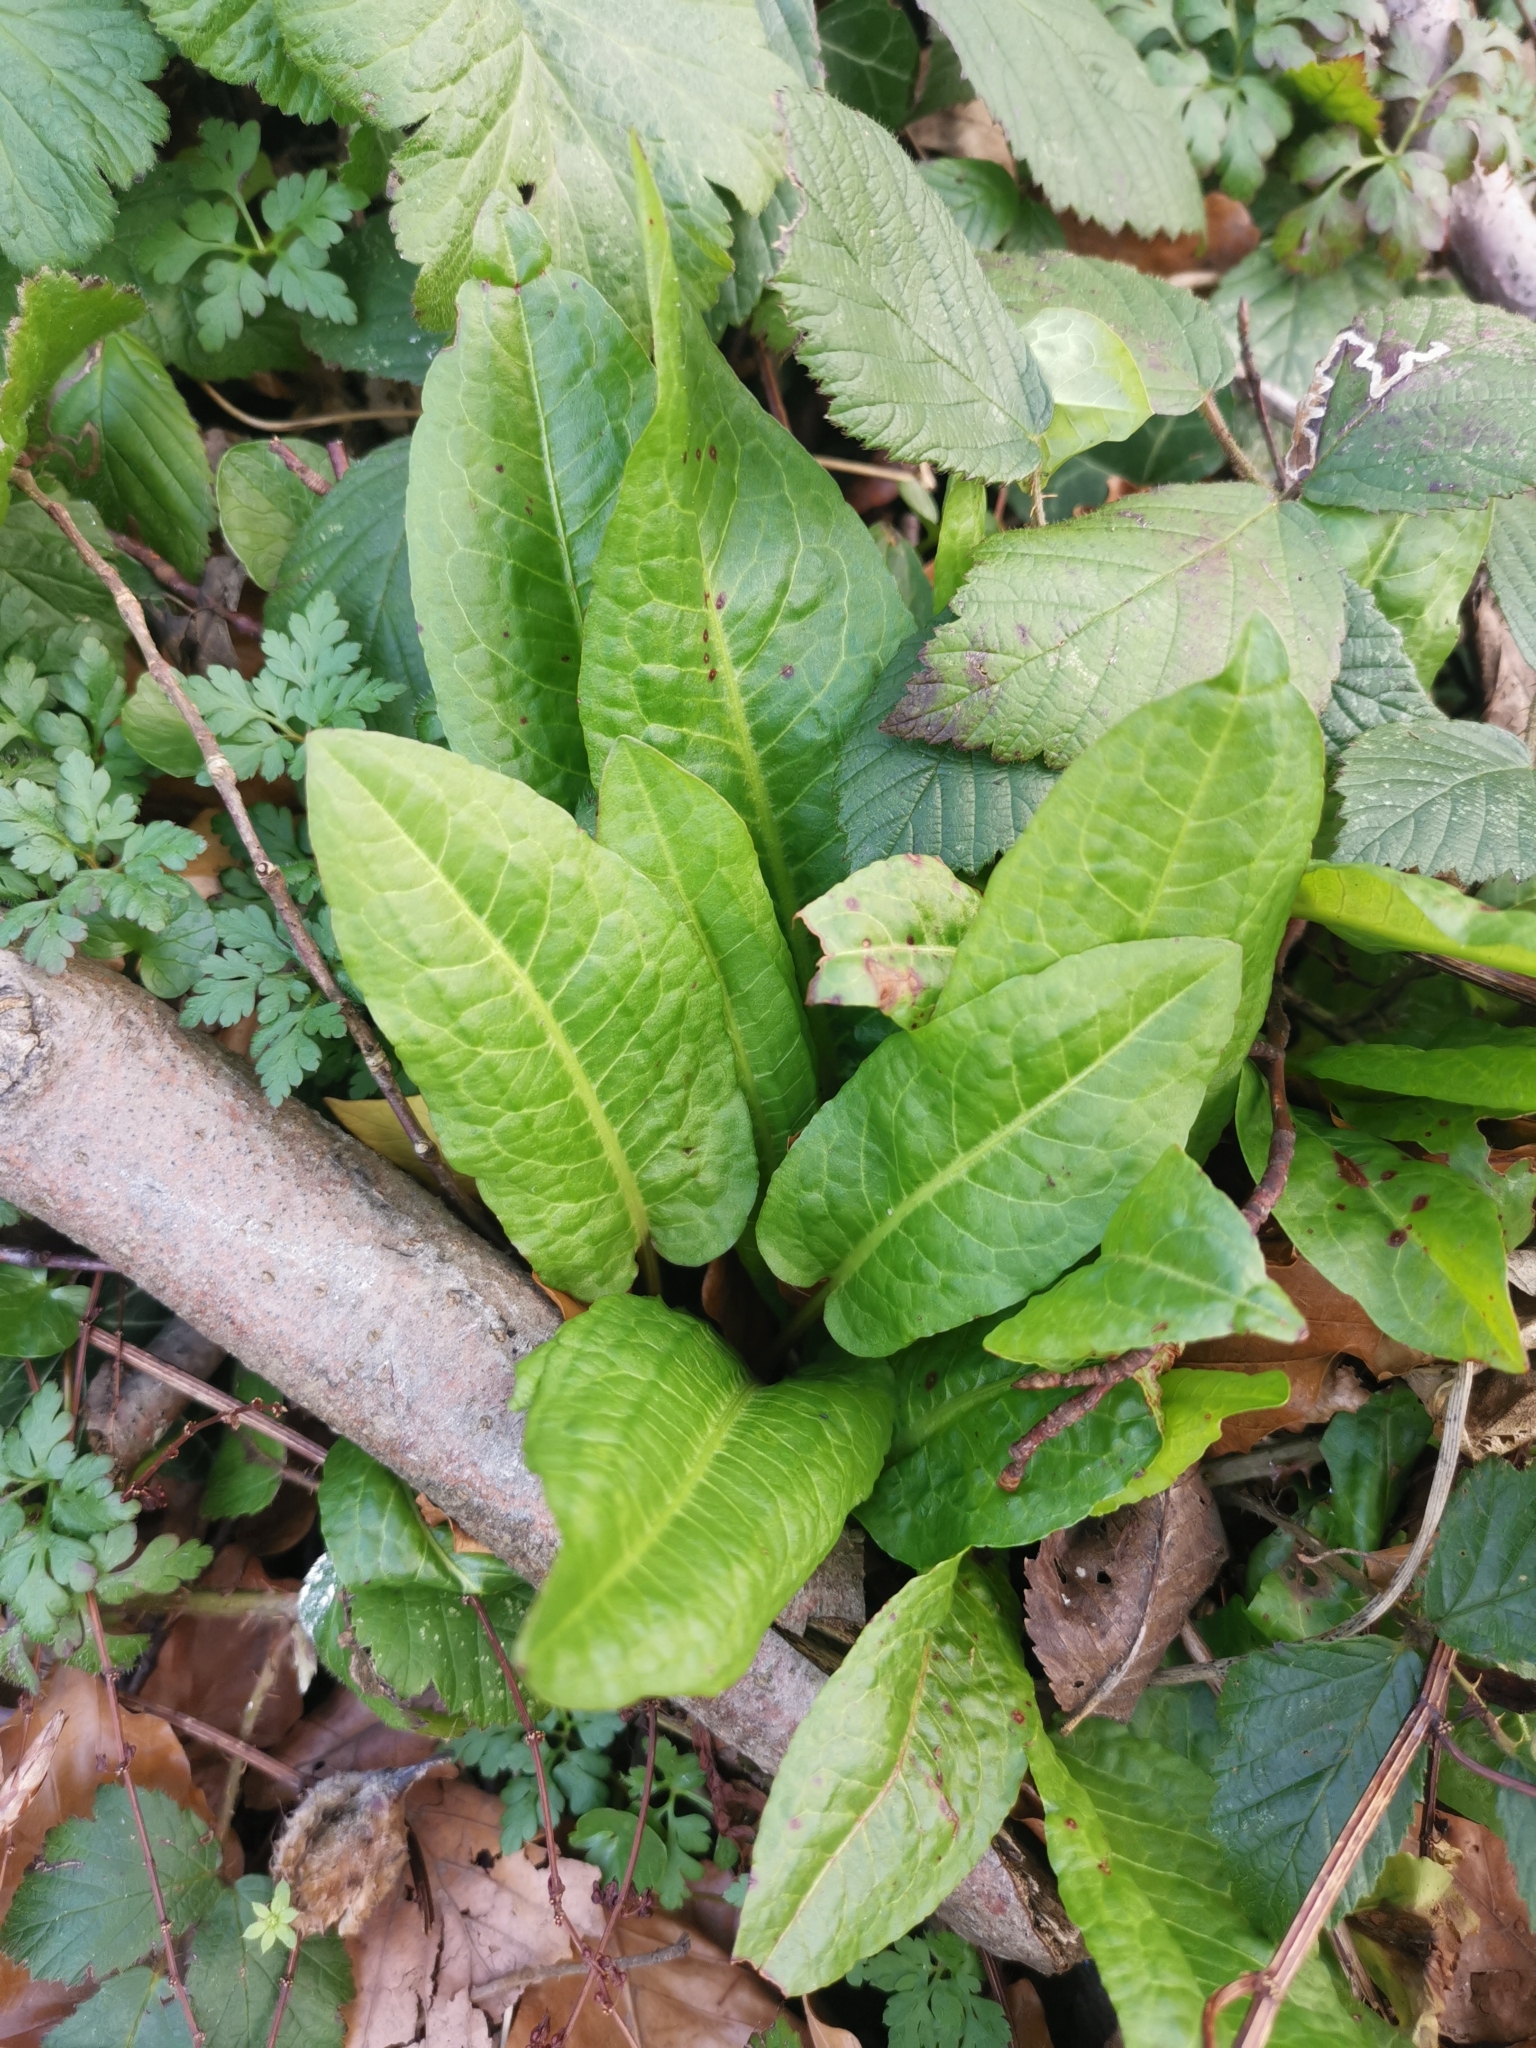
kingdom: Plantae
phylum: Tracheophyta
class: Magnoliopsida
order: Caryophyllales
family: Polygonaceae
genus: Rumex
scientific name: Rumex obtusifolius
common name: Bitter dock
